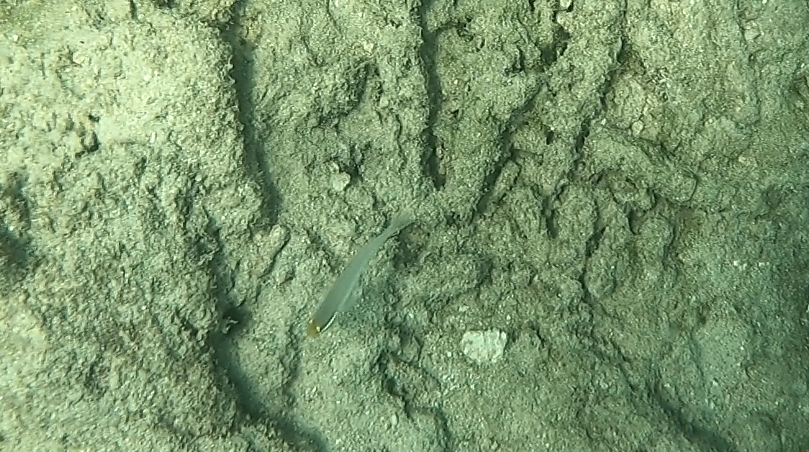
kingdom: Animalia
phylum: Chordata
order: Perciformes
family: Gobiidae
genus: Valenciennea
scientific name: Valenciennea strigata
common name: Blueband goby
